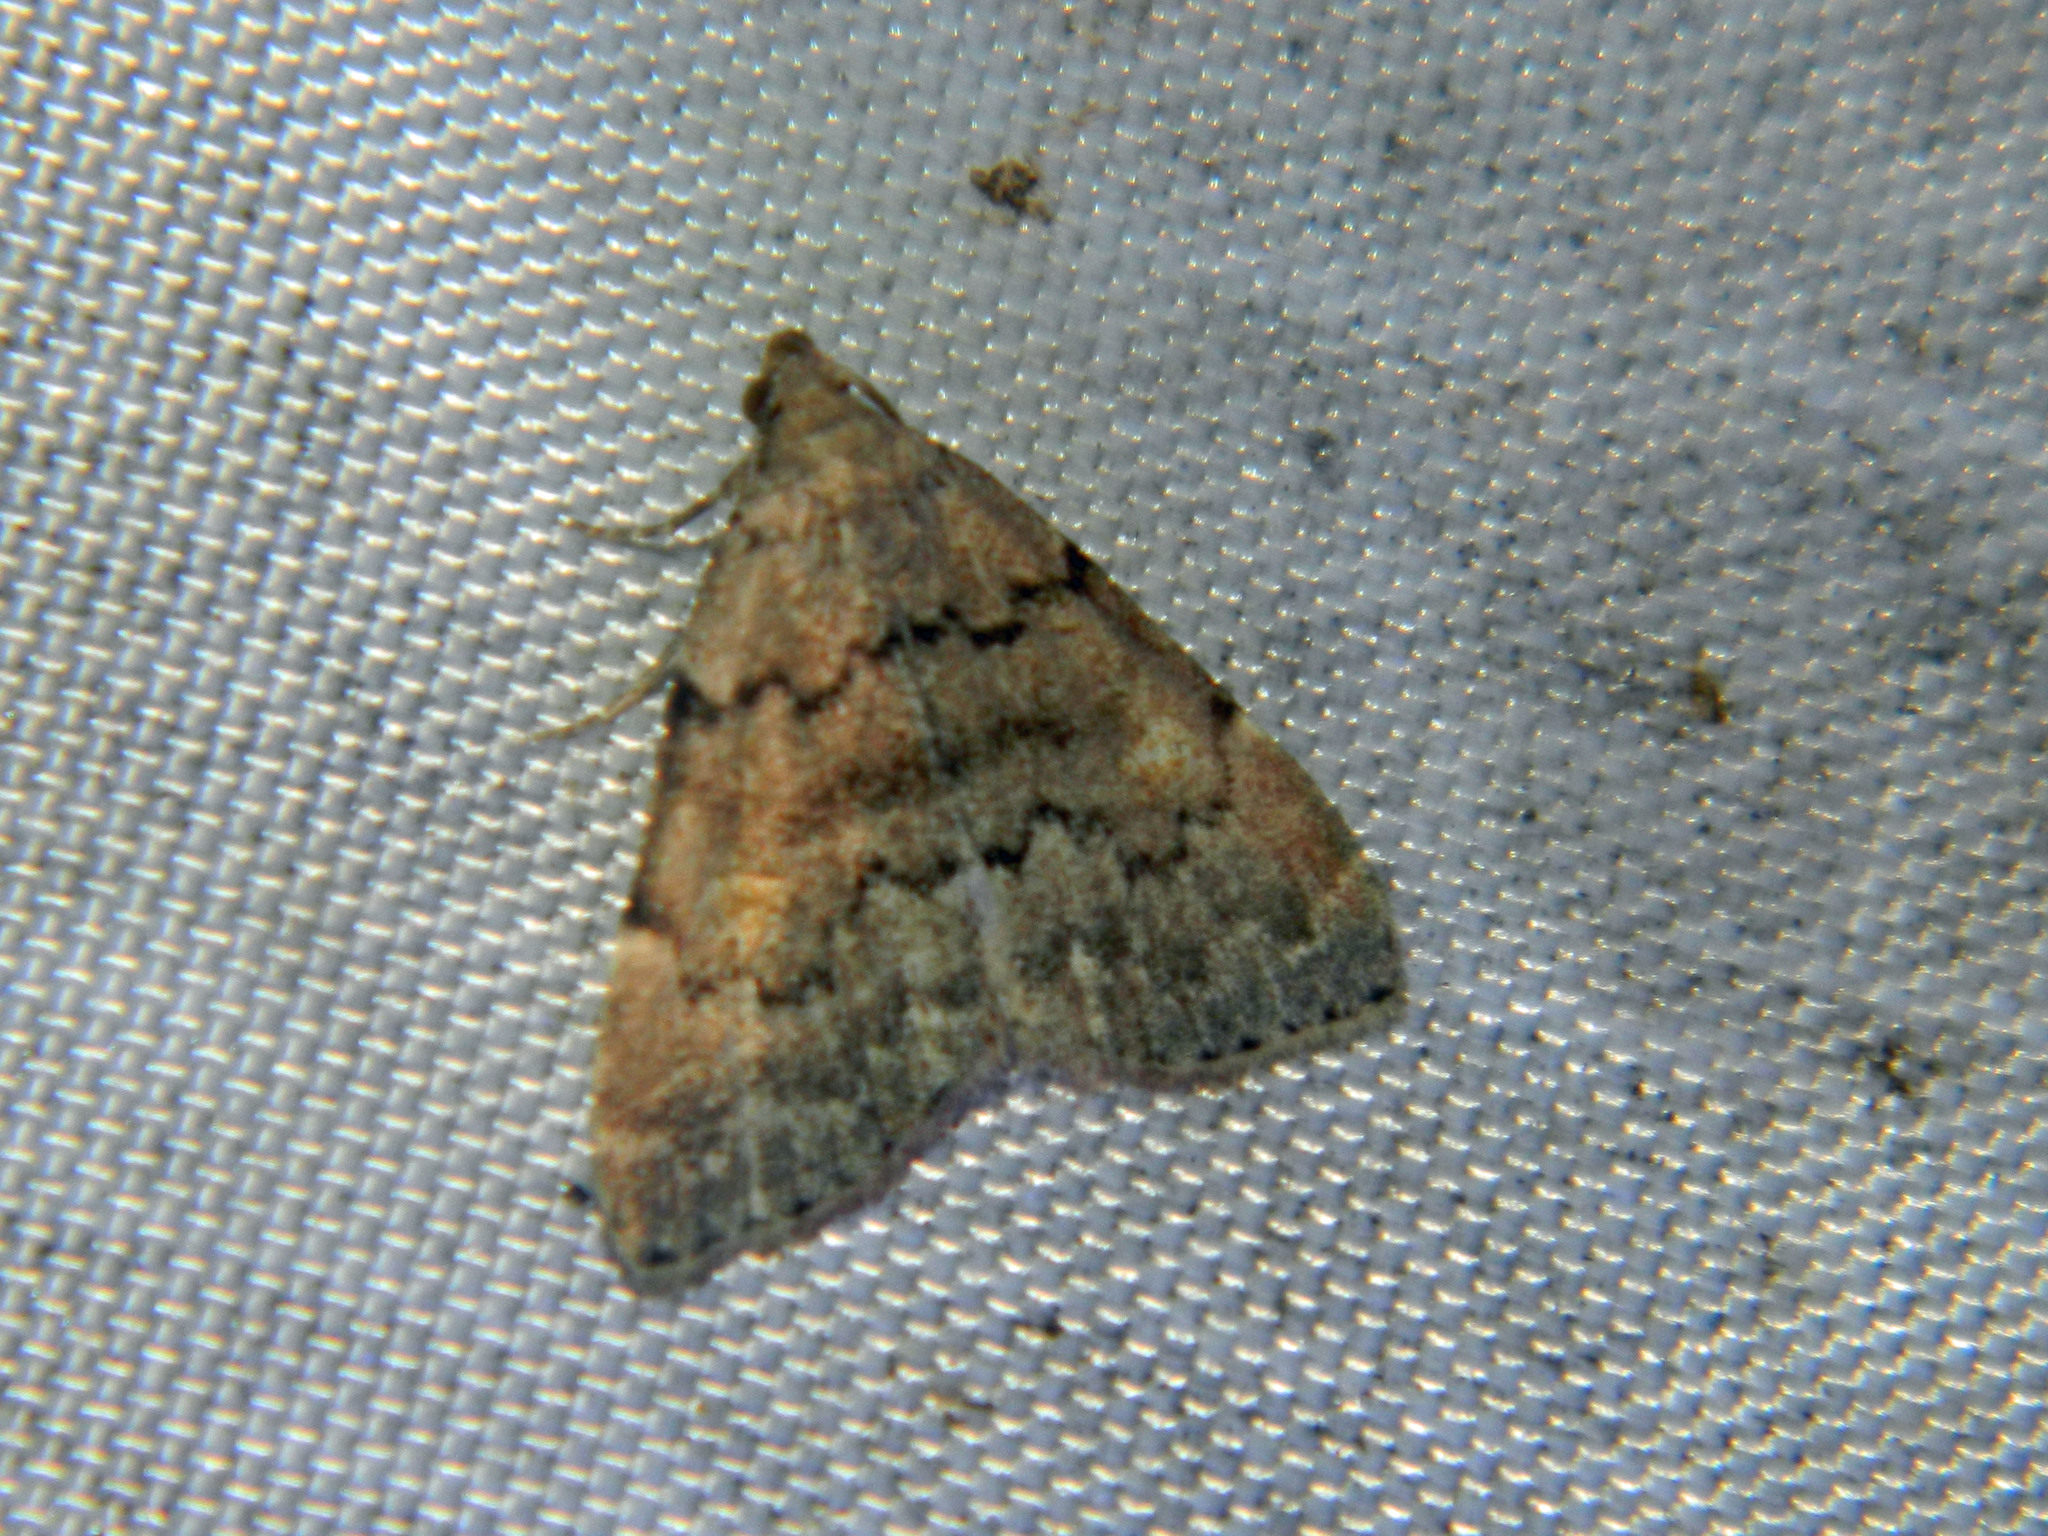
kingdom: Animalia
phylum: Arthropoda
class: Insecta
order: Lepidoptera
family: Erebidae
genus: Idia
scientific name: Idia aemula
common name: Common idia moth
